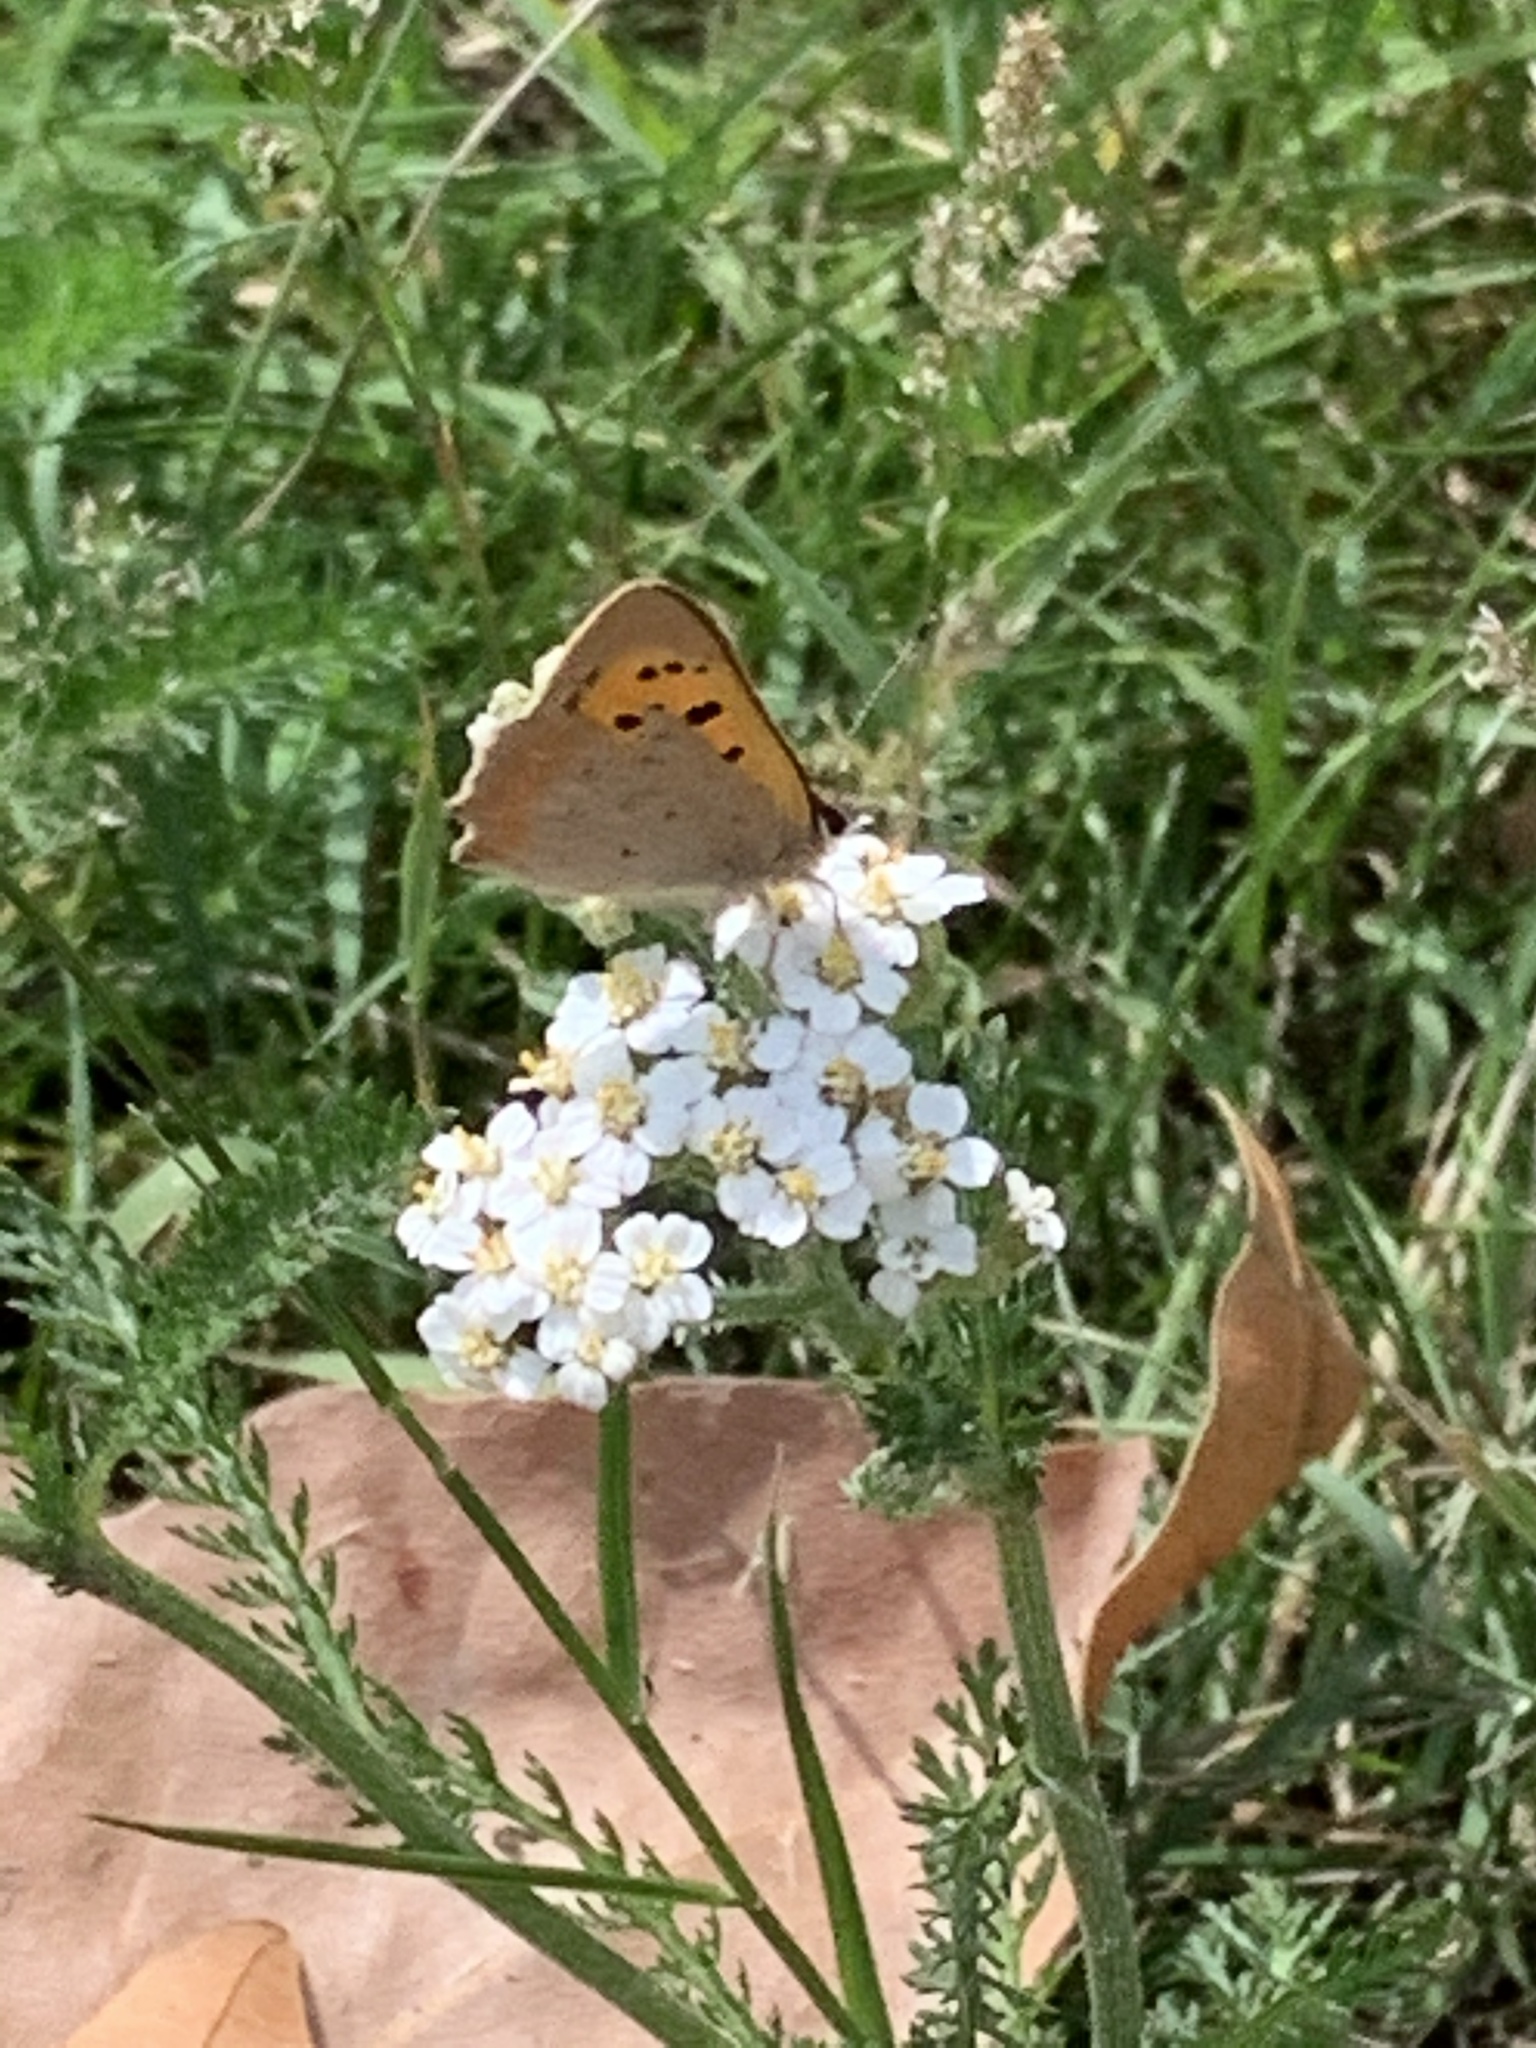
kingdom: Animalia
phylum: Arthropoda
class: Insecta
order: Lepidoptera
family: Lycaenidae
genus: Lycaena
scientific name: Lycaena phlaeas
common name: Small copper
